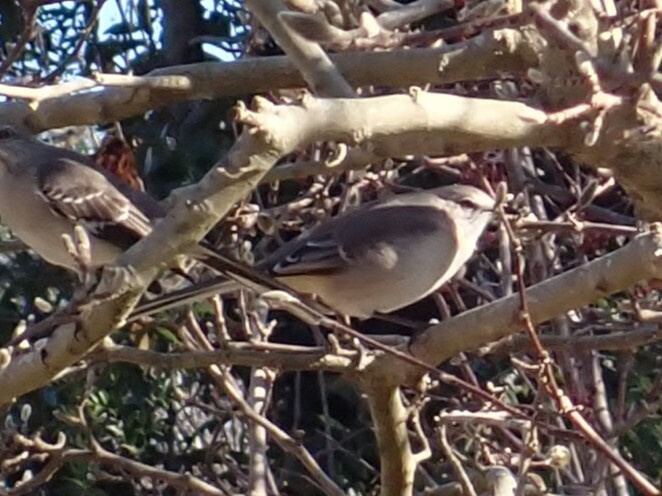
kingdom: Animalia
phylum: Chordata
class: Aves
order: Passeriformes
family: Mimidae
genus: Mimus
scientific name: Mimus polyglottos
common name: Northern mockingbird
